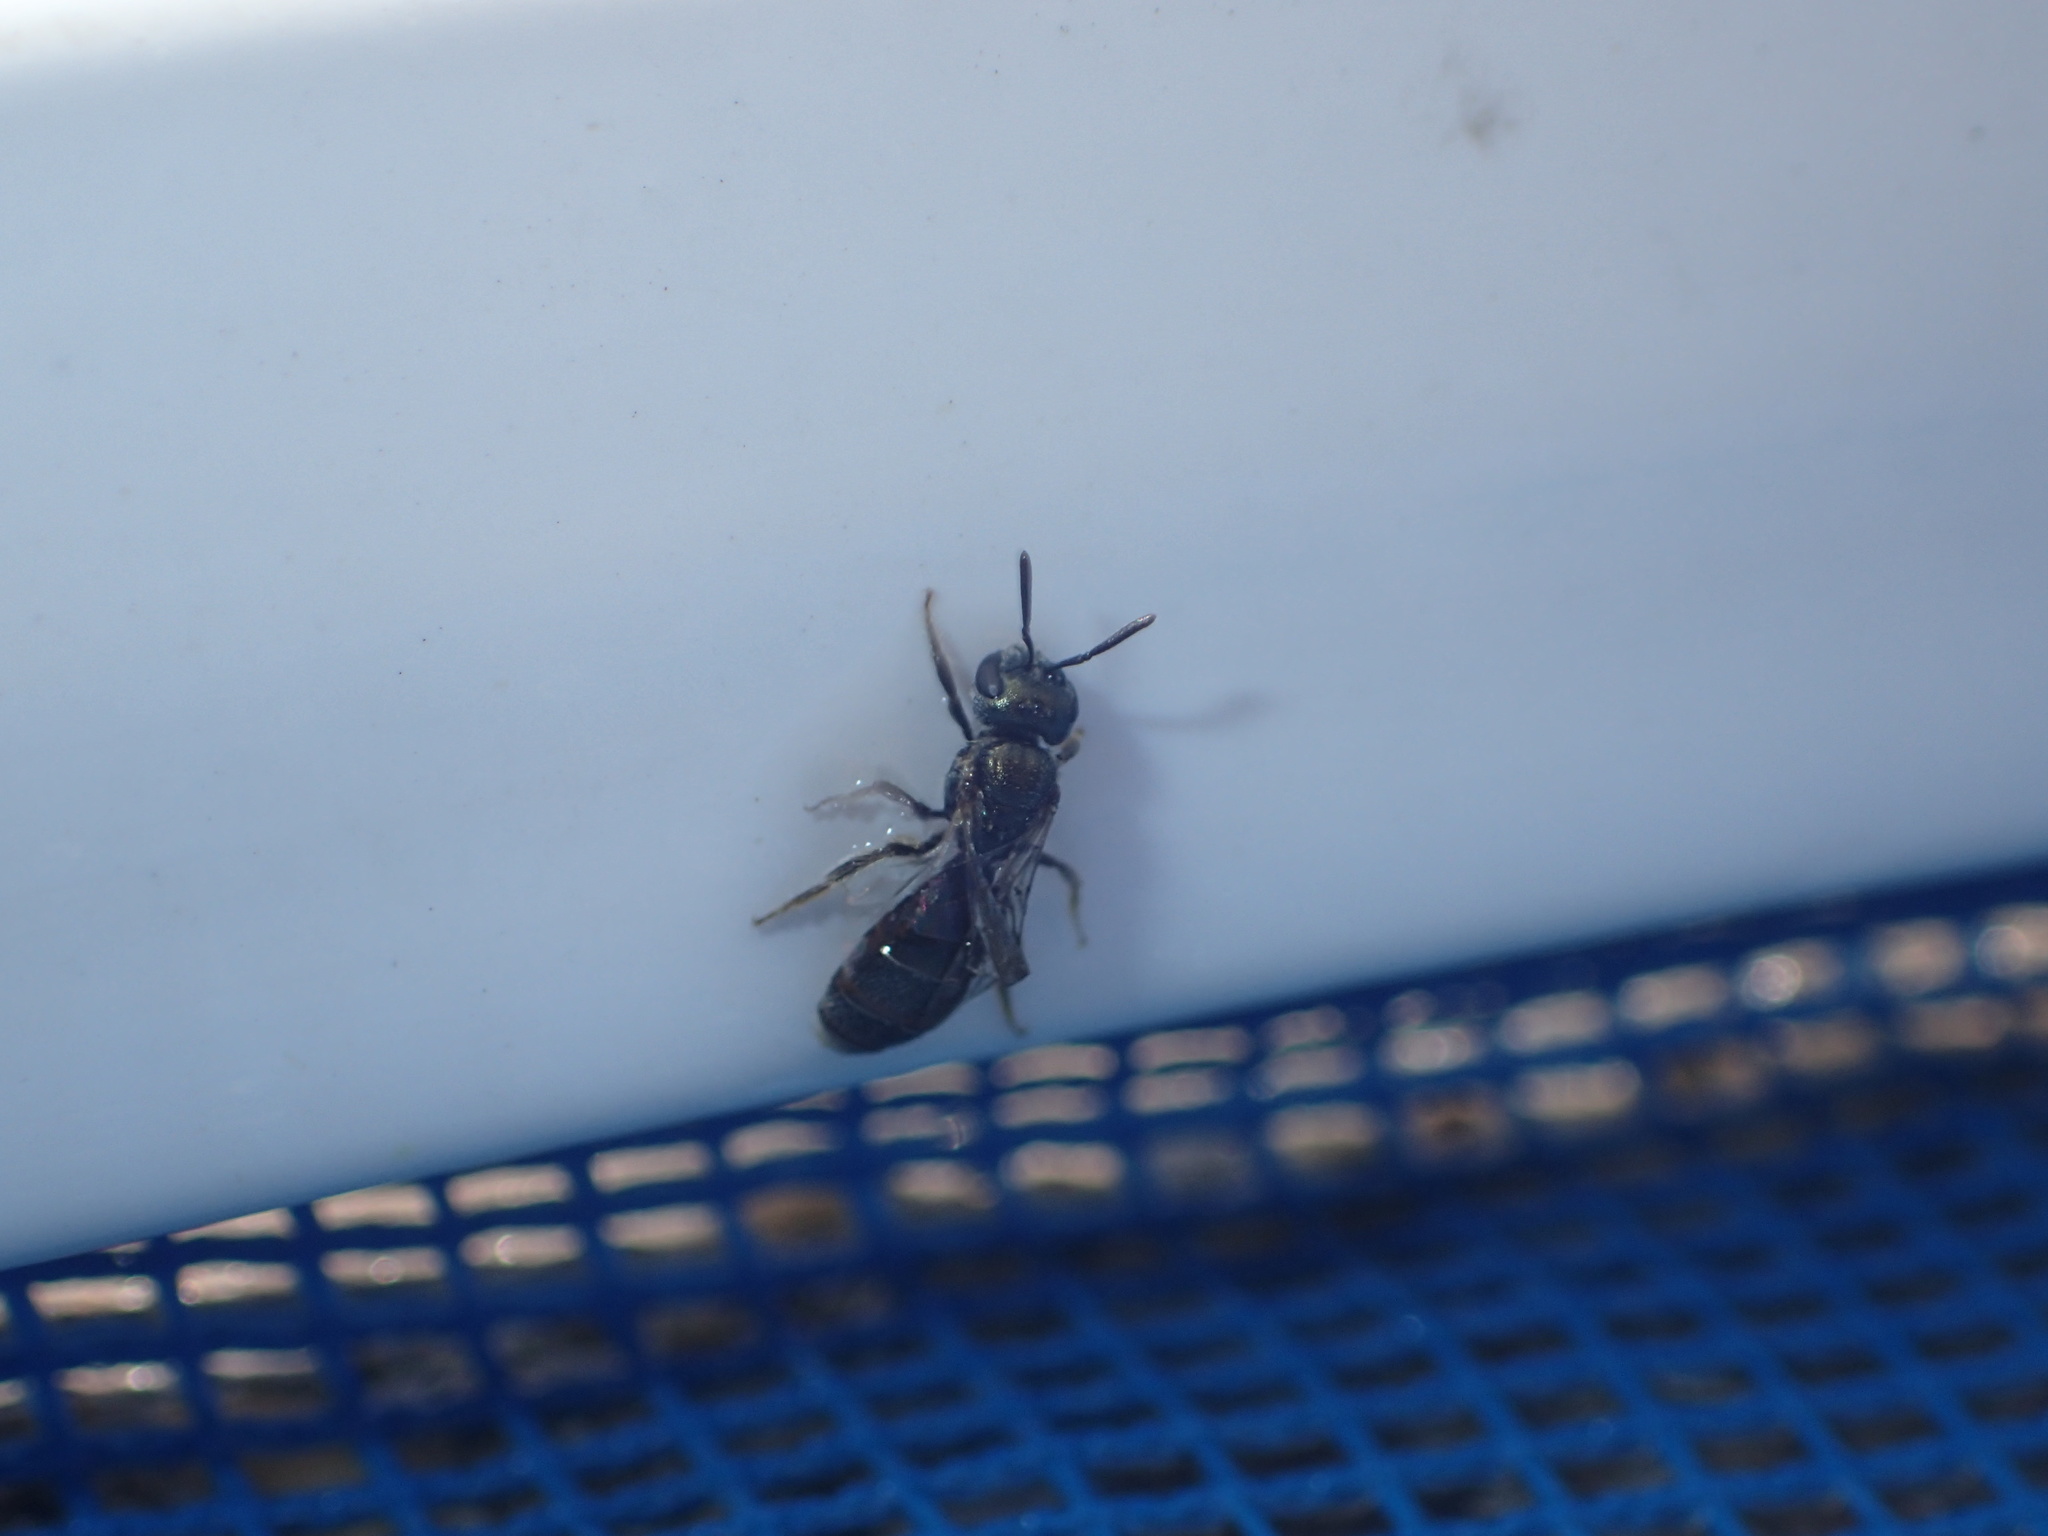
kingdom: Animalia
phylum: Arthropoda
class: Insecta
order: Hymenoptera
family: Halictidae
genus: Dialictus
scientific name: Dialictus
